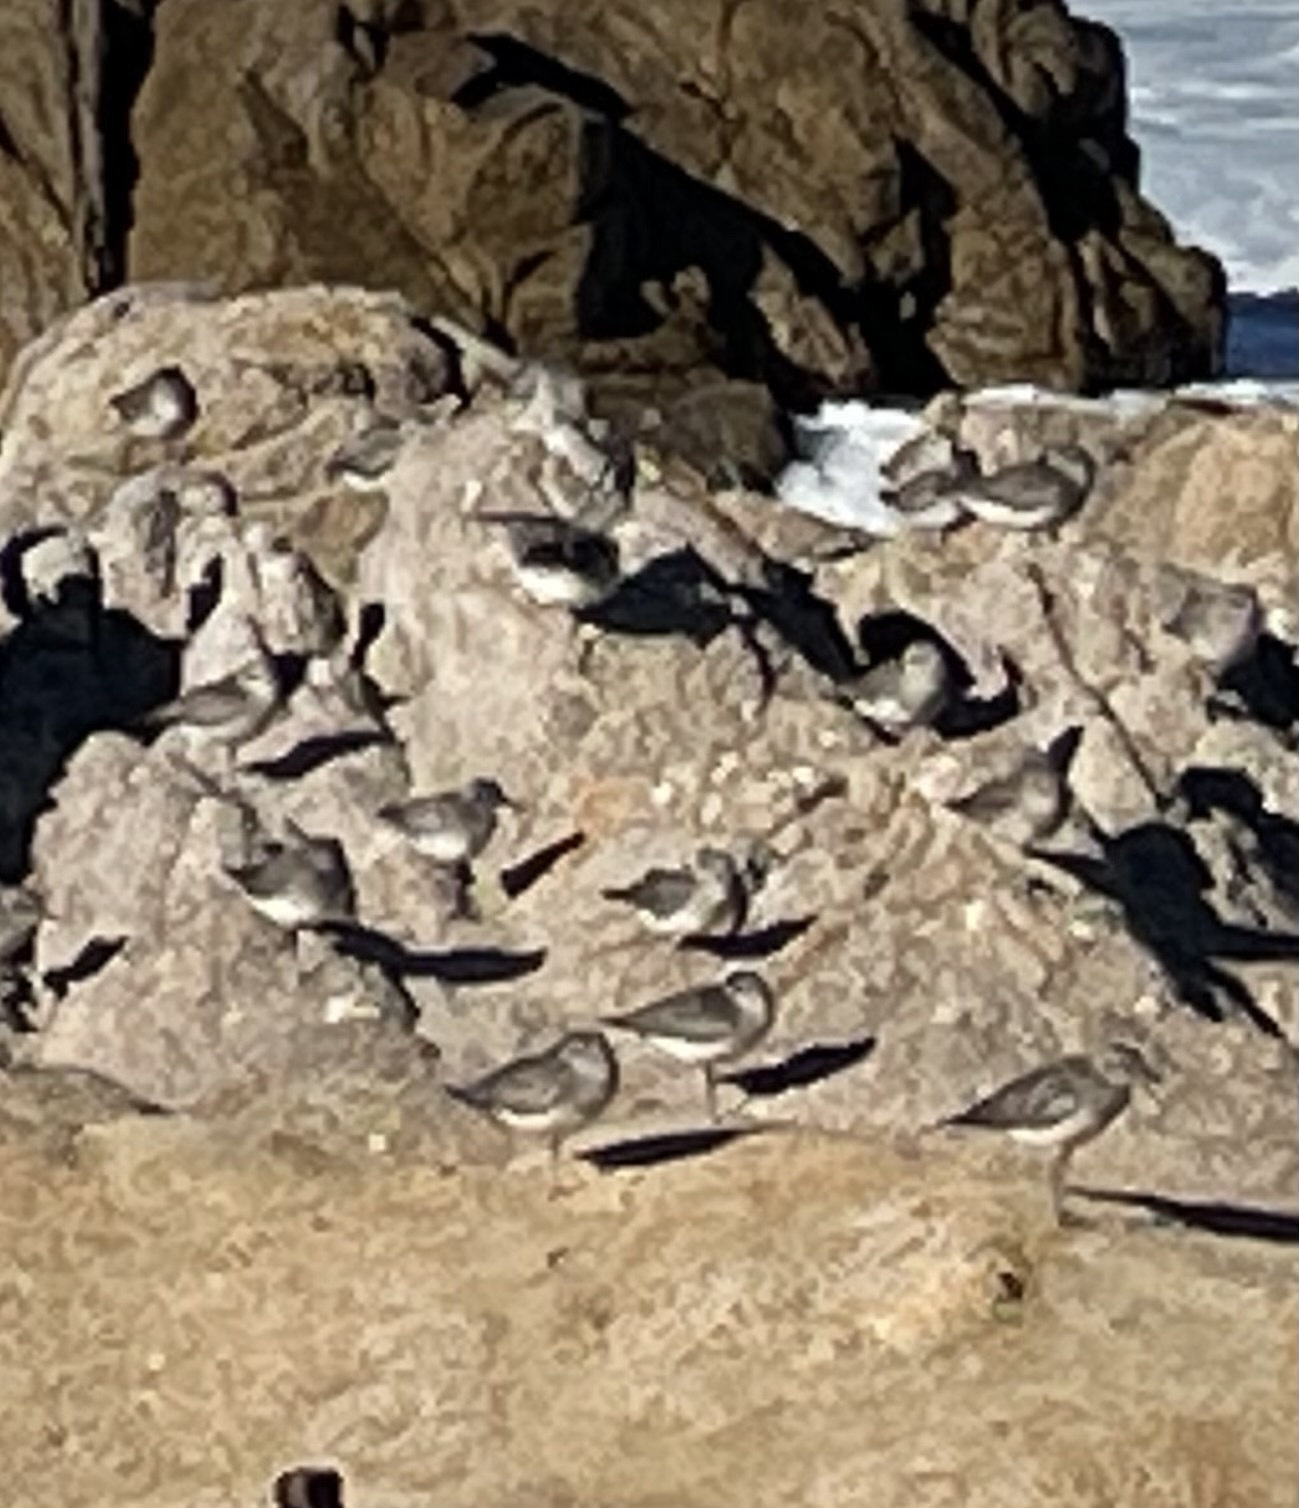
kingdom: Animalia
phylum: Chordata
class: Aves
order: Charadriiformes
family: Charadriidae
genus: Pluvialis
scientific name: Pluvialis squatarola
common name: Grey plover
